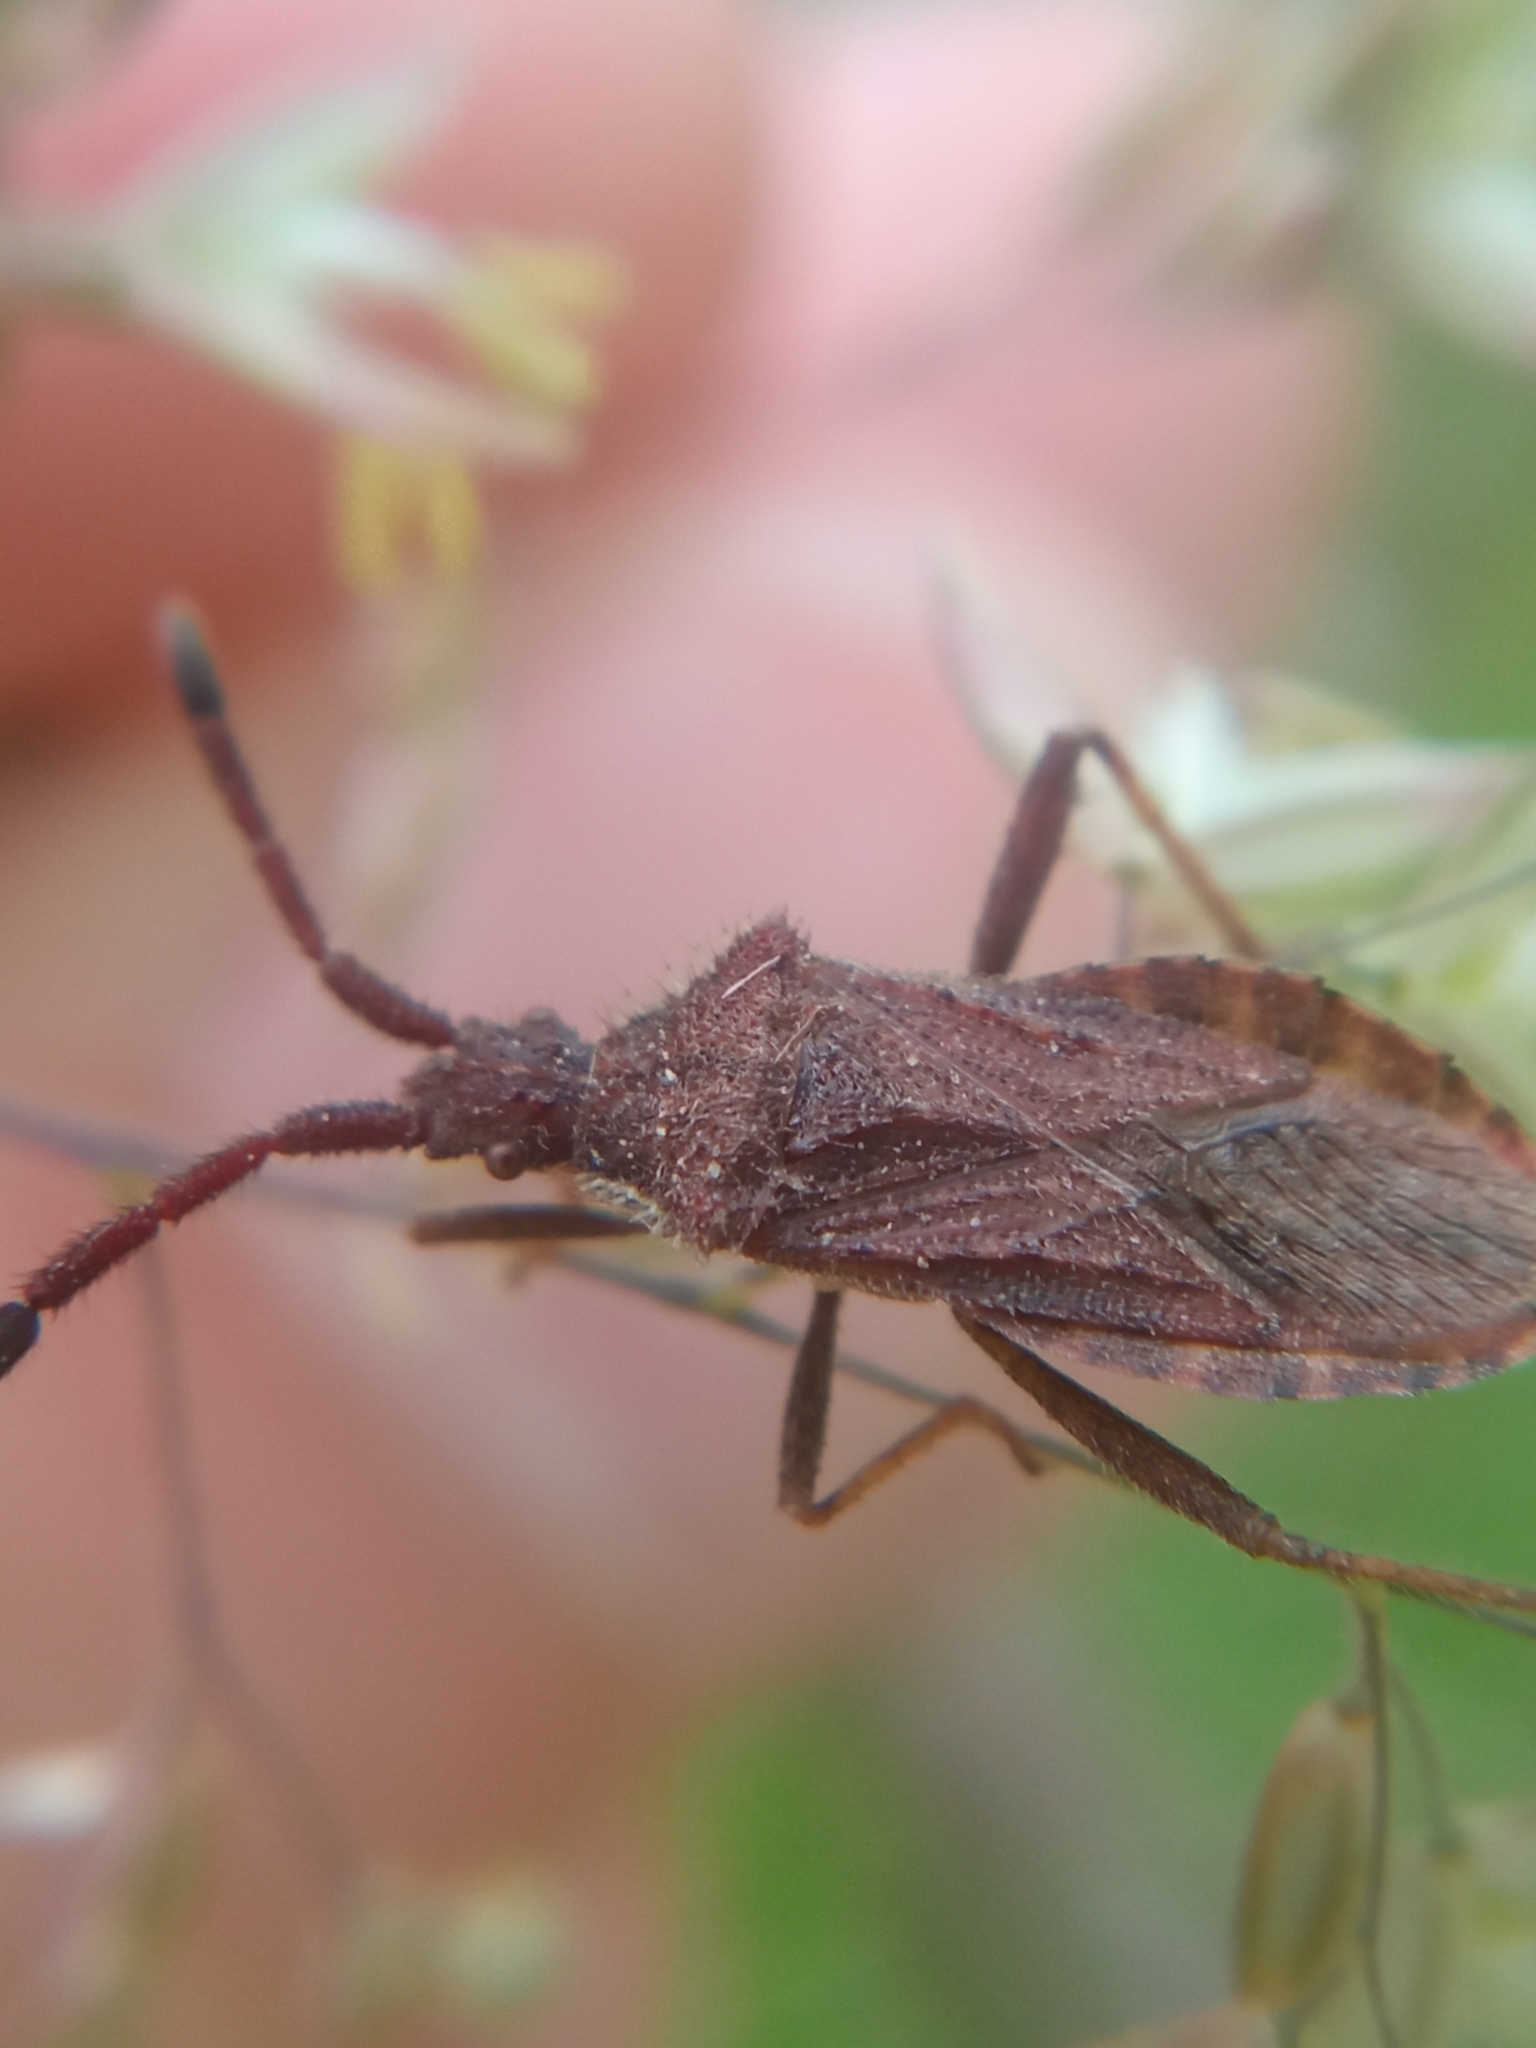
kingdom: Animalia
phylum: Arthropoda
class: Insecta
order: Hemiptera
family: Coreidae
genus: Coriomeris
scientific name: Coriomeris denticulatus
